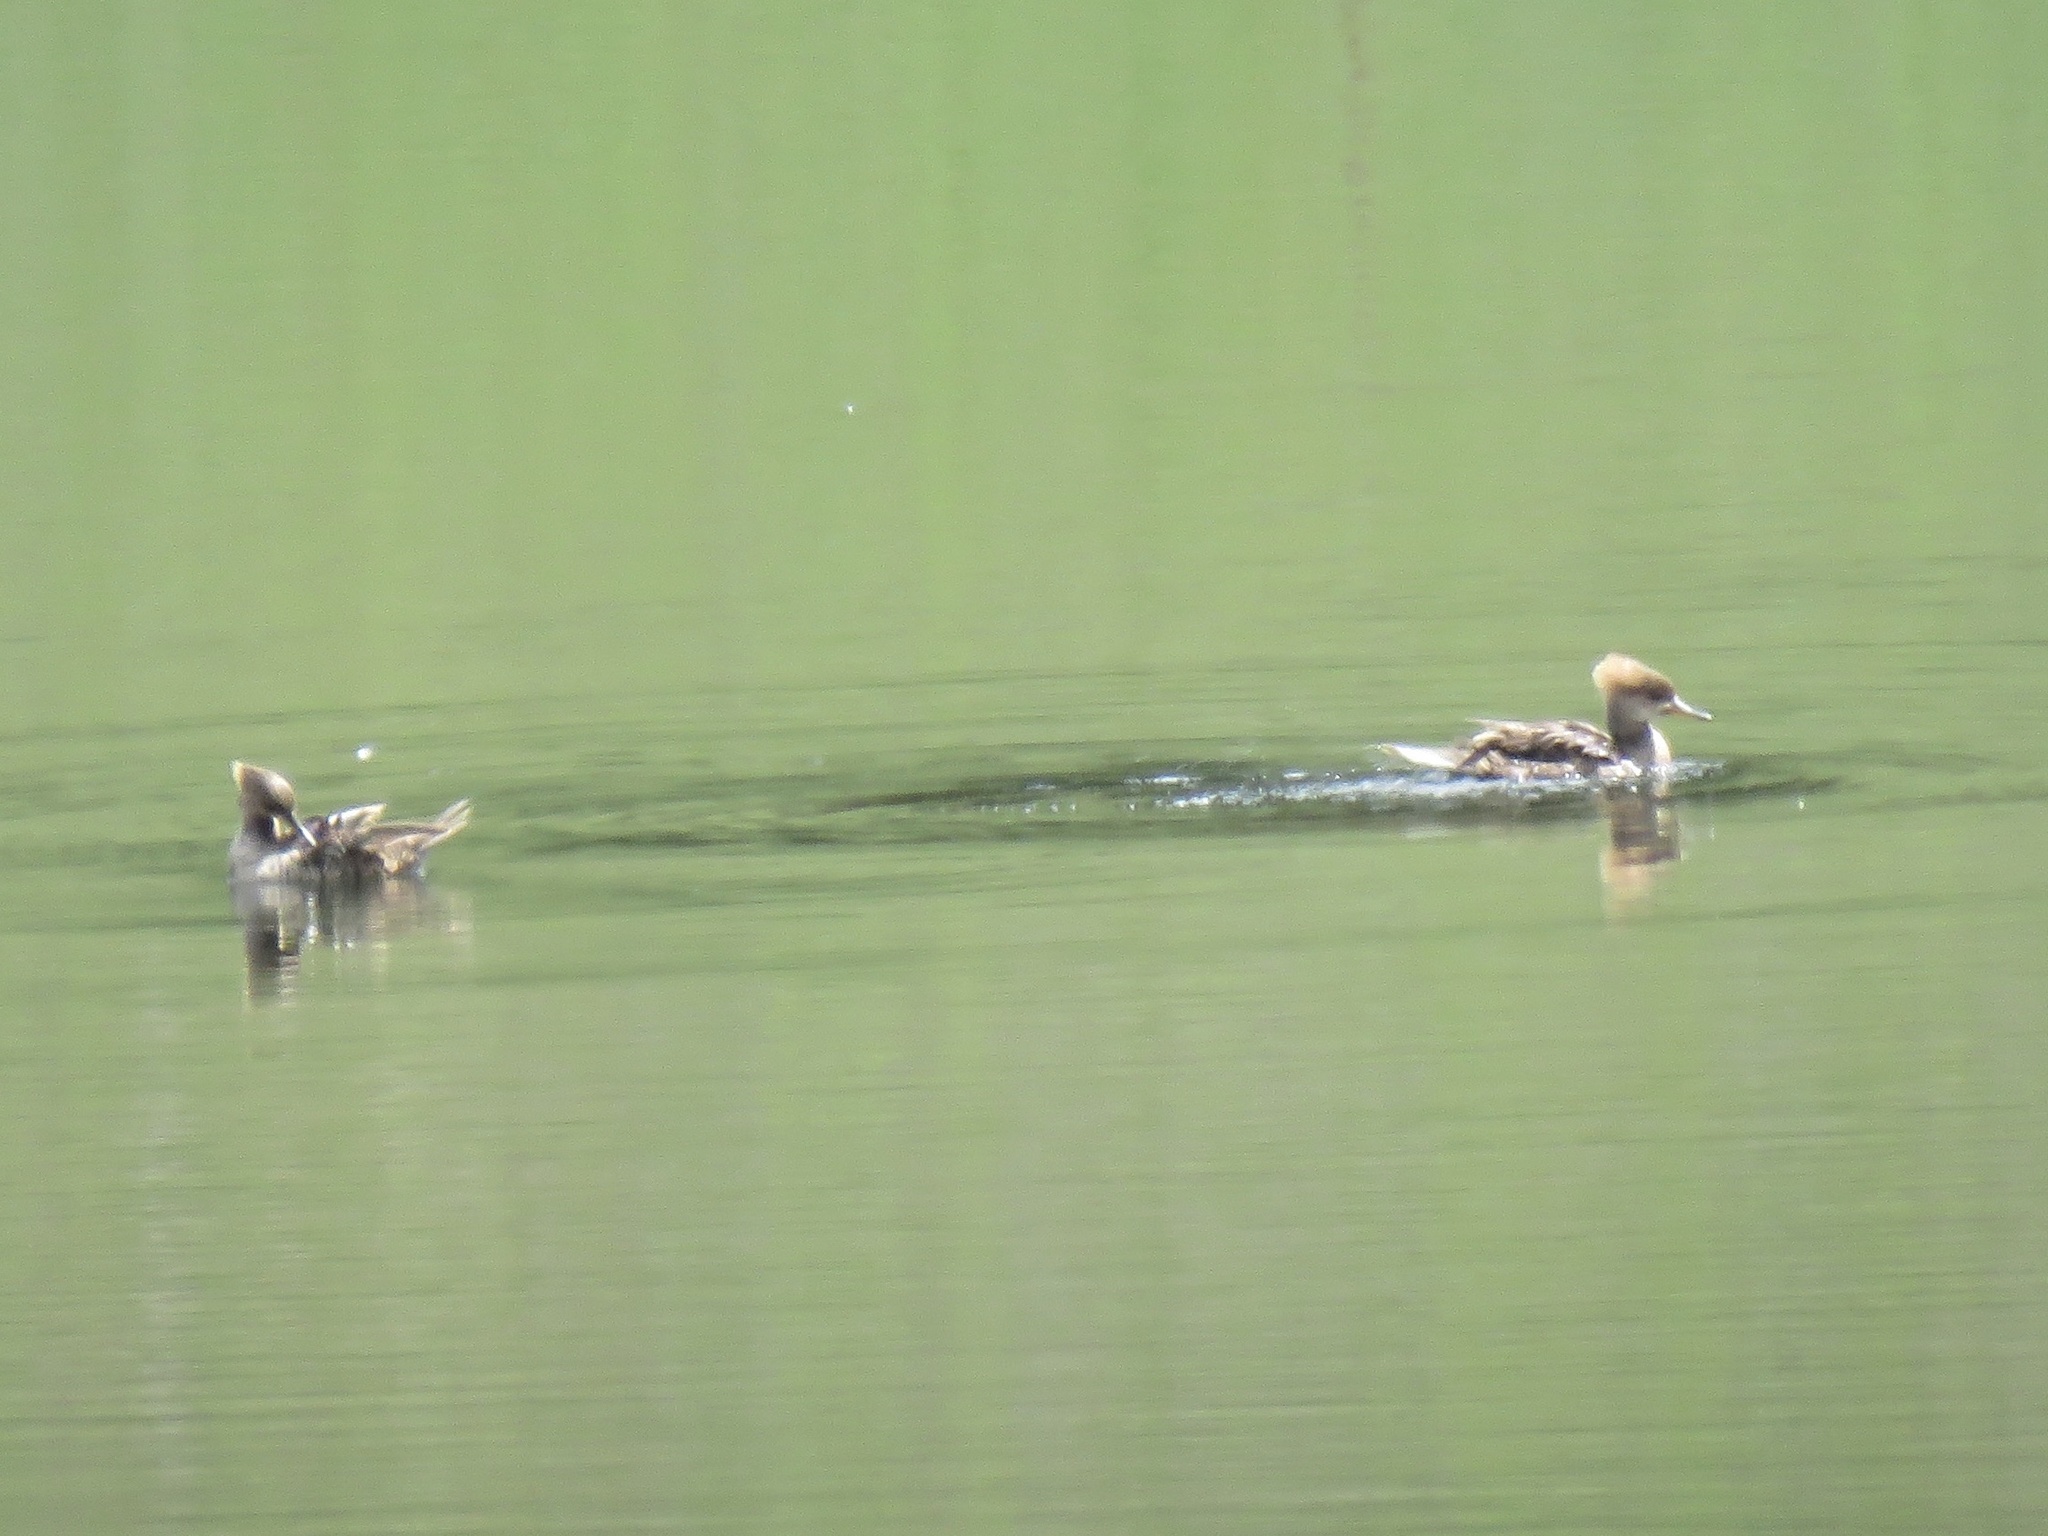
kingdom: Animalia
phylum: Chordata
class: Aves
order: Anseriformes
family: Anatidae
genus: Lophodytes
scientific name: Lophodytes cucullatus
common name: Hooded merganser
